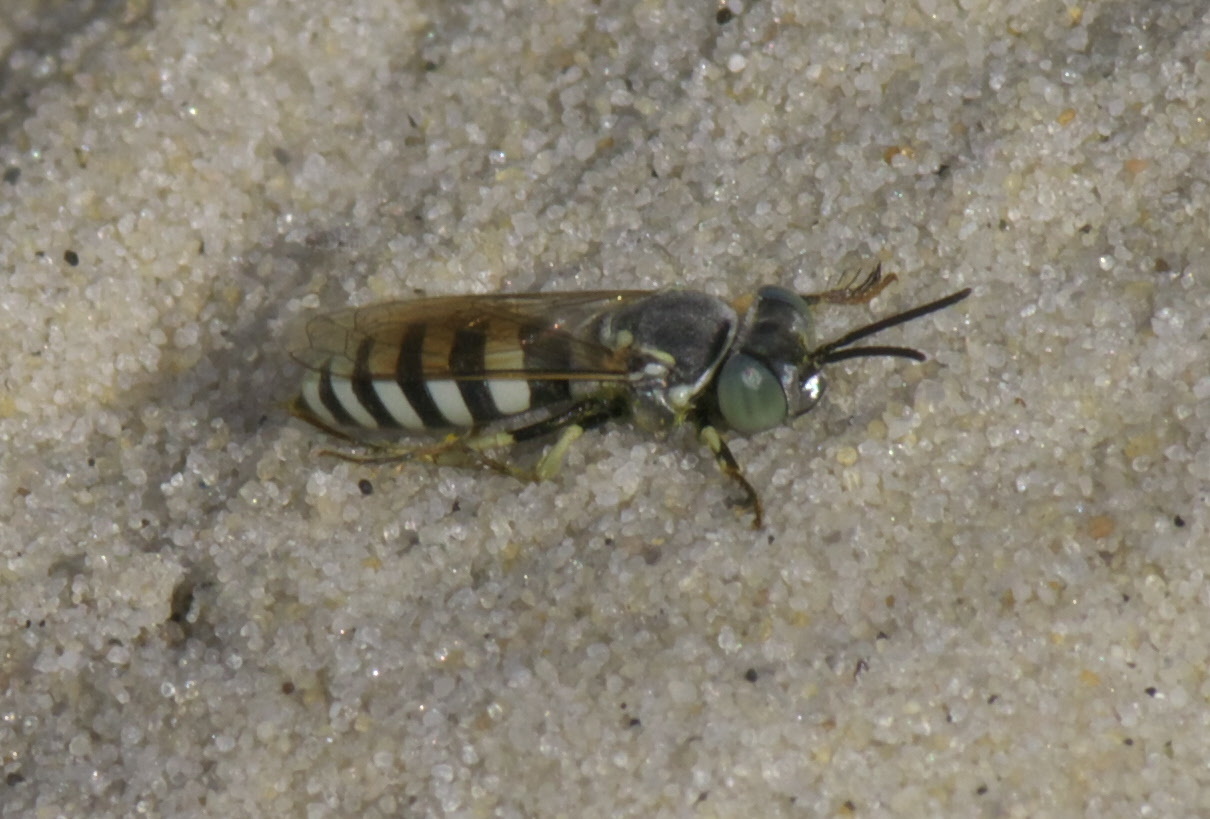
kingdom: Animalia
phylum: Arthropoda
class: Insecta
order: Hymenoptera
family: Crabronidae
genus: Microbembex
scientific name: Microbembex monodonta
